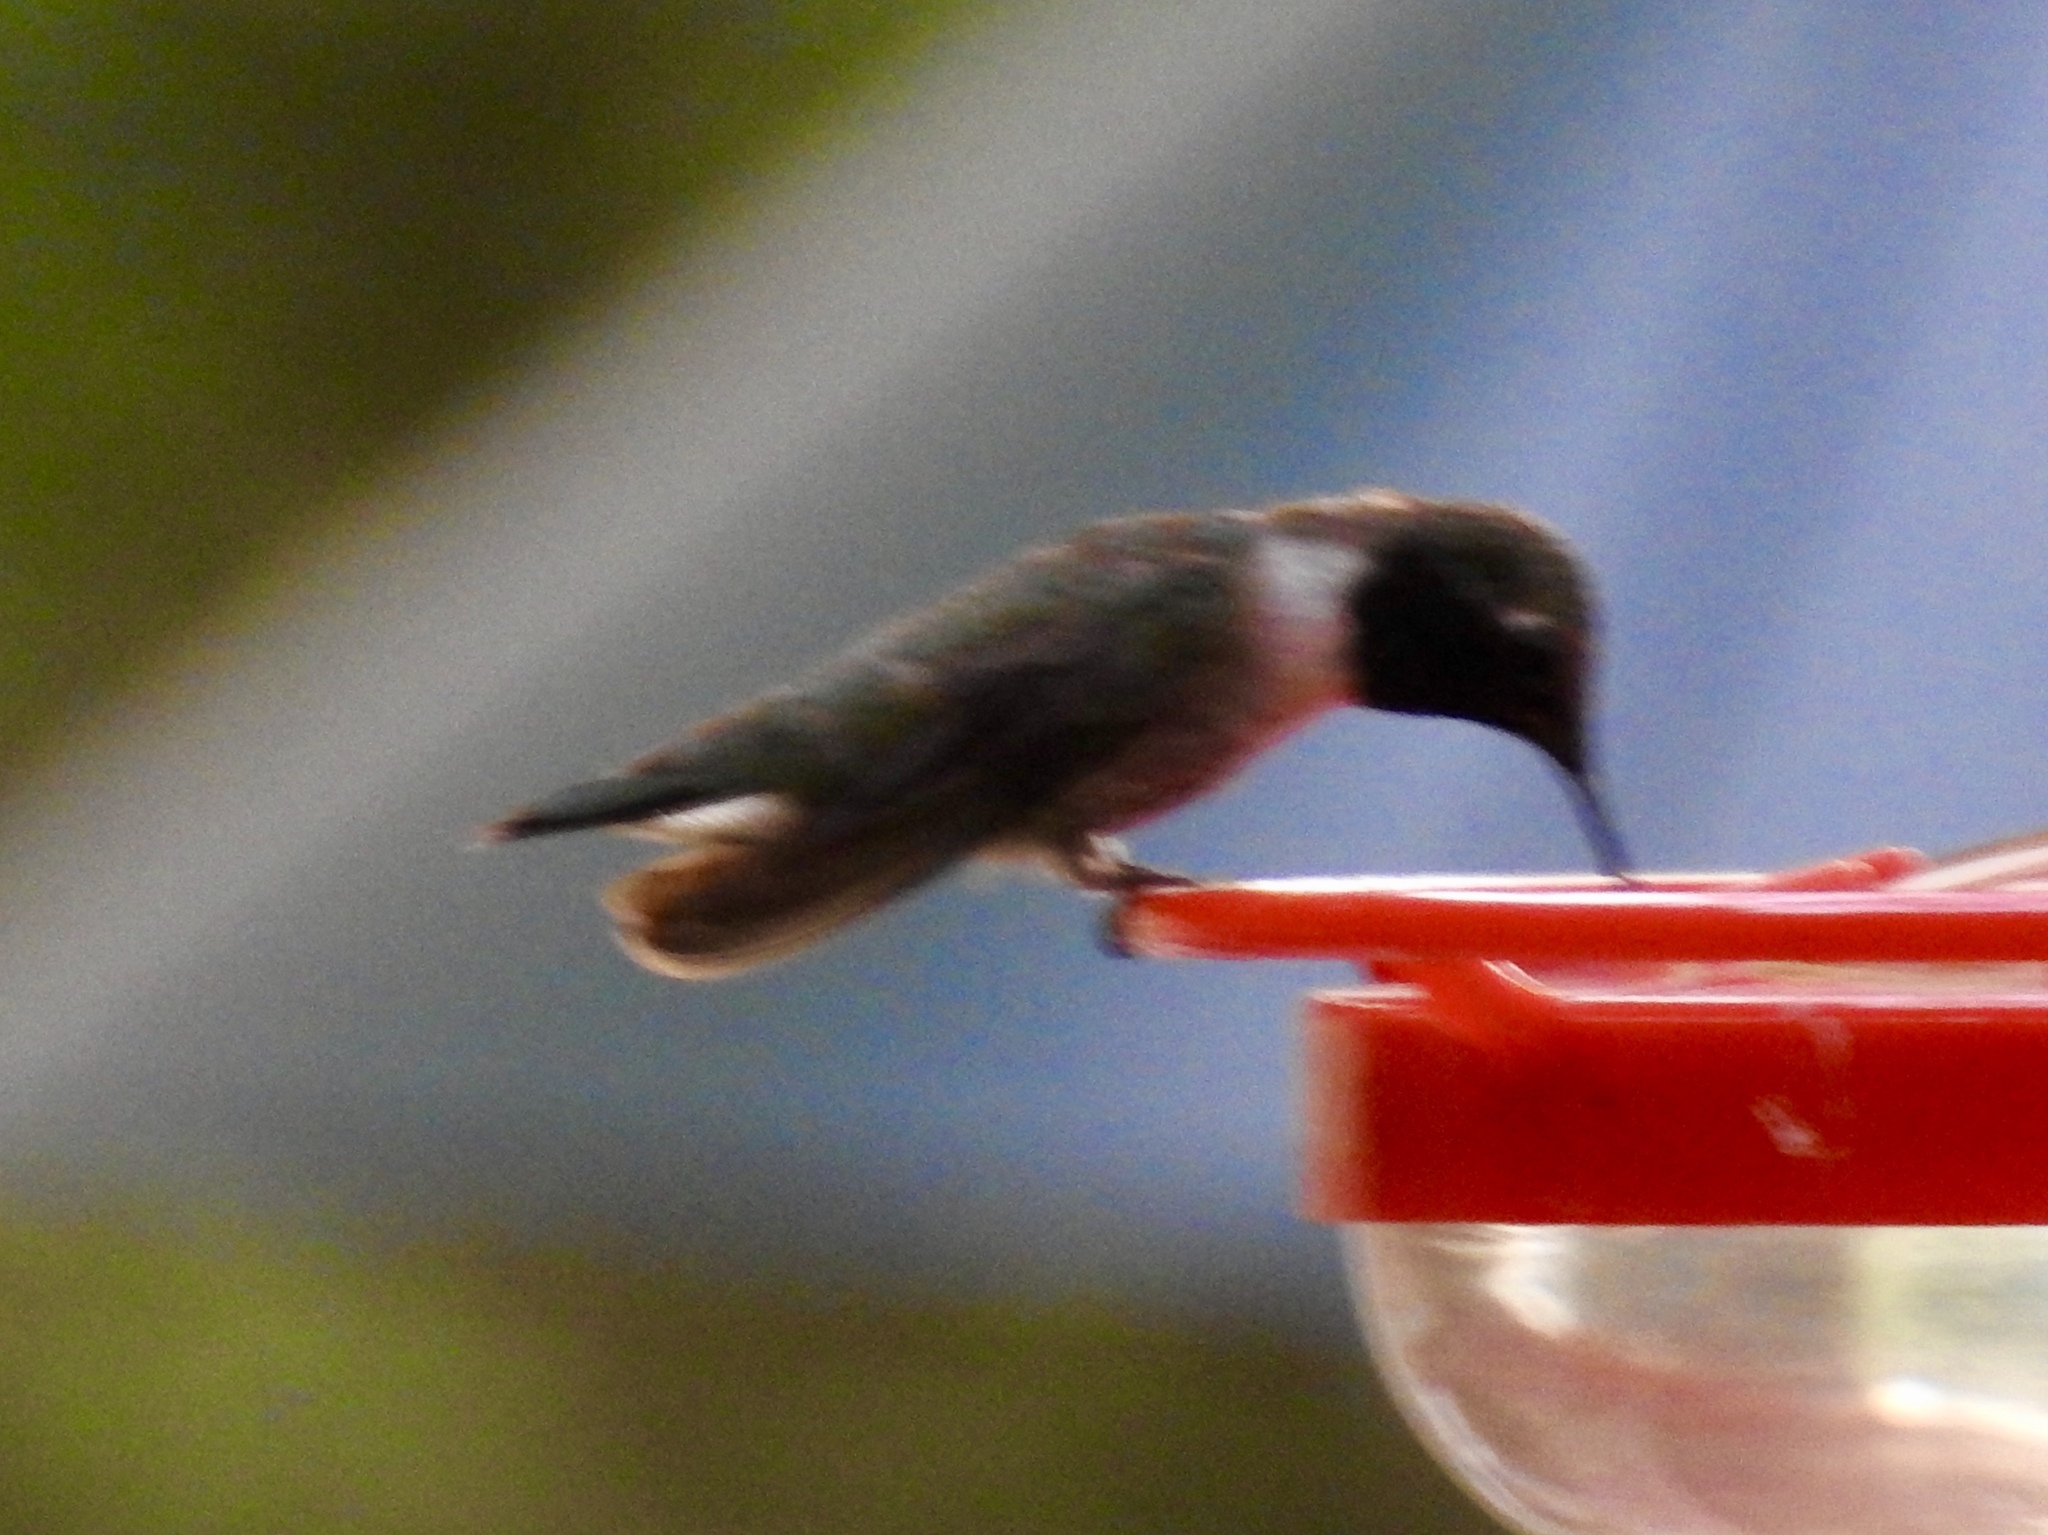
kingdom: Animalia
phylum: Chordata
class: Aves
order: Apodiformes
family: Trochilidae
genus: Archilochus
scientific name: Archilochus alexandri
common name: Black-chinned hummingbird
